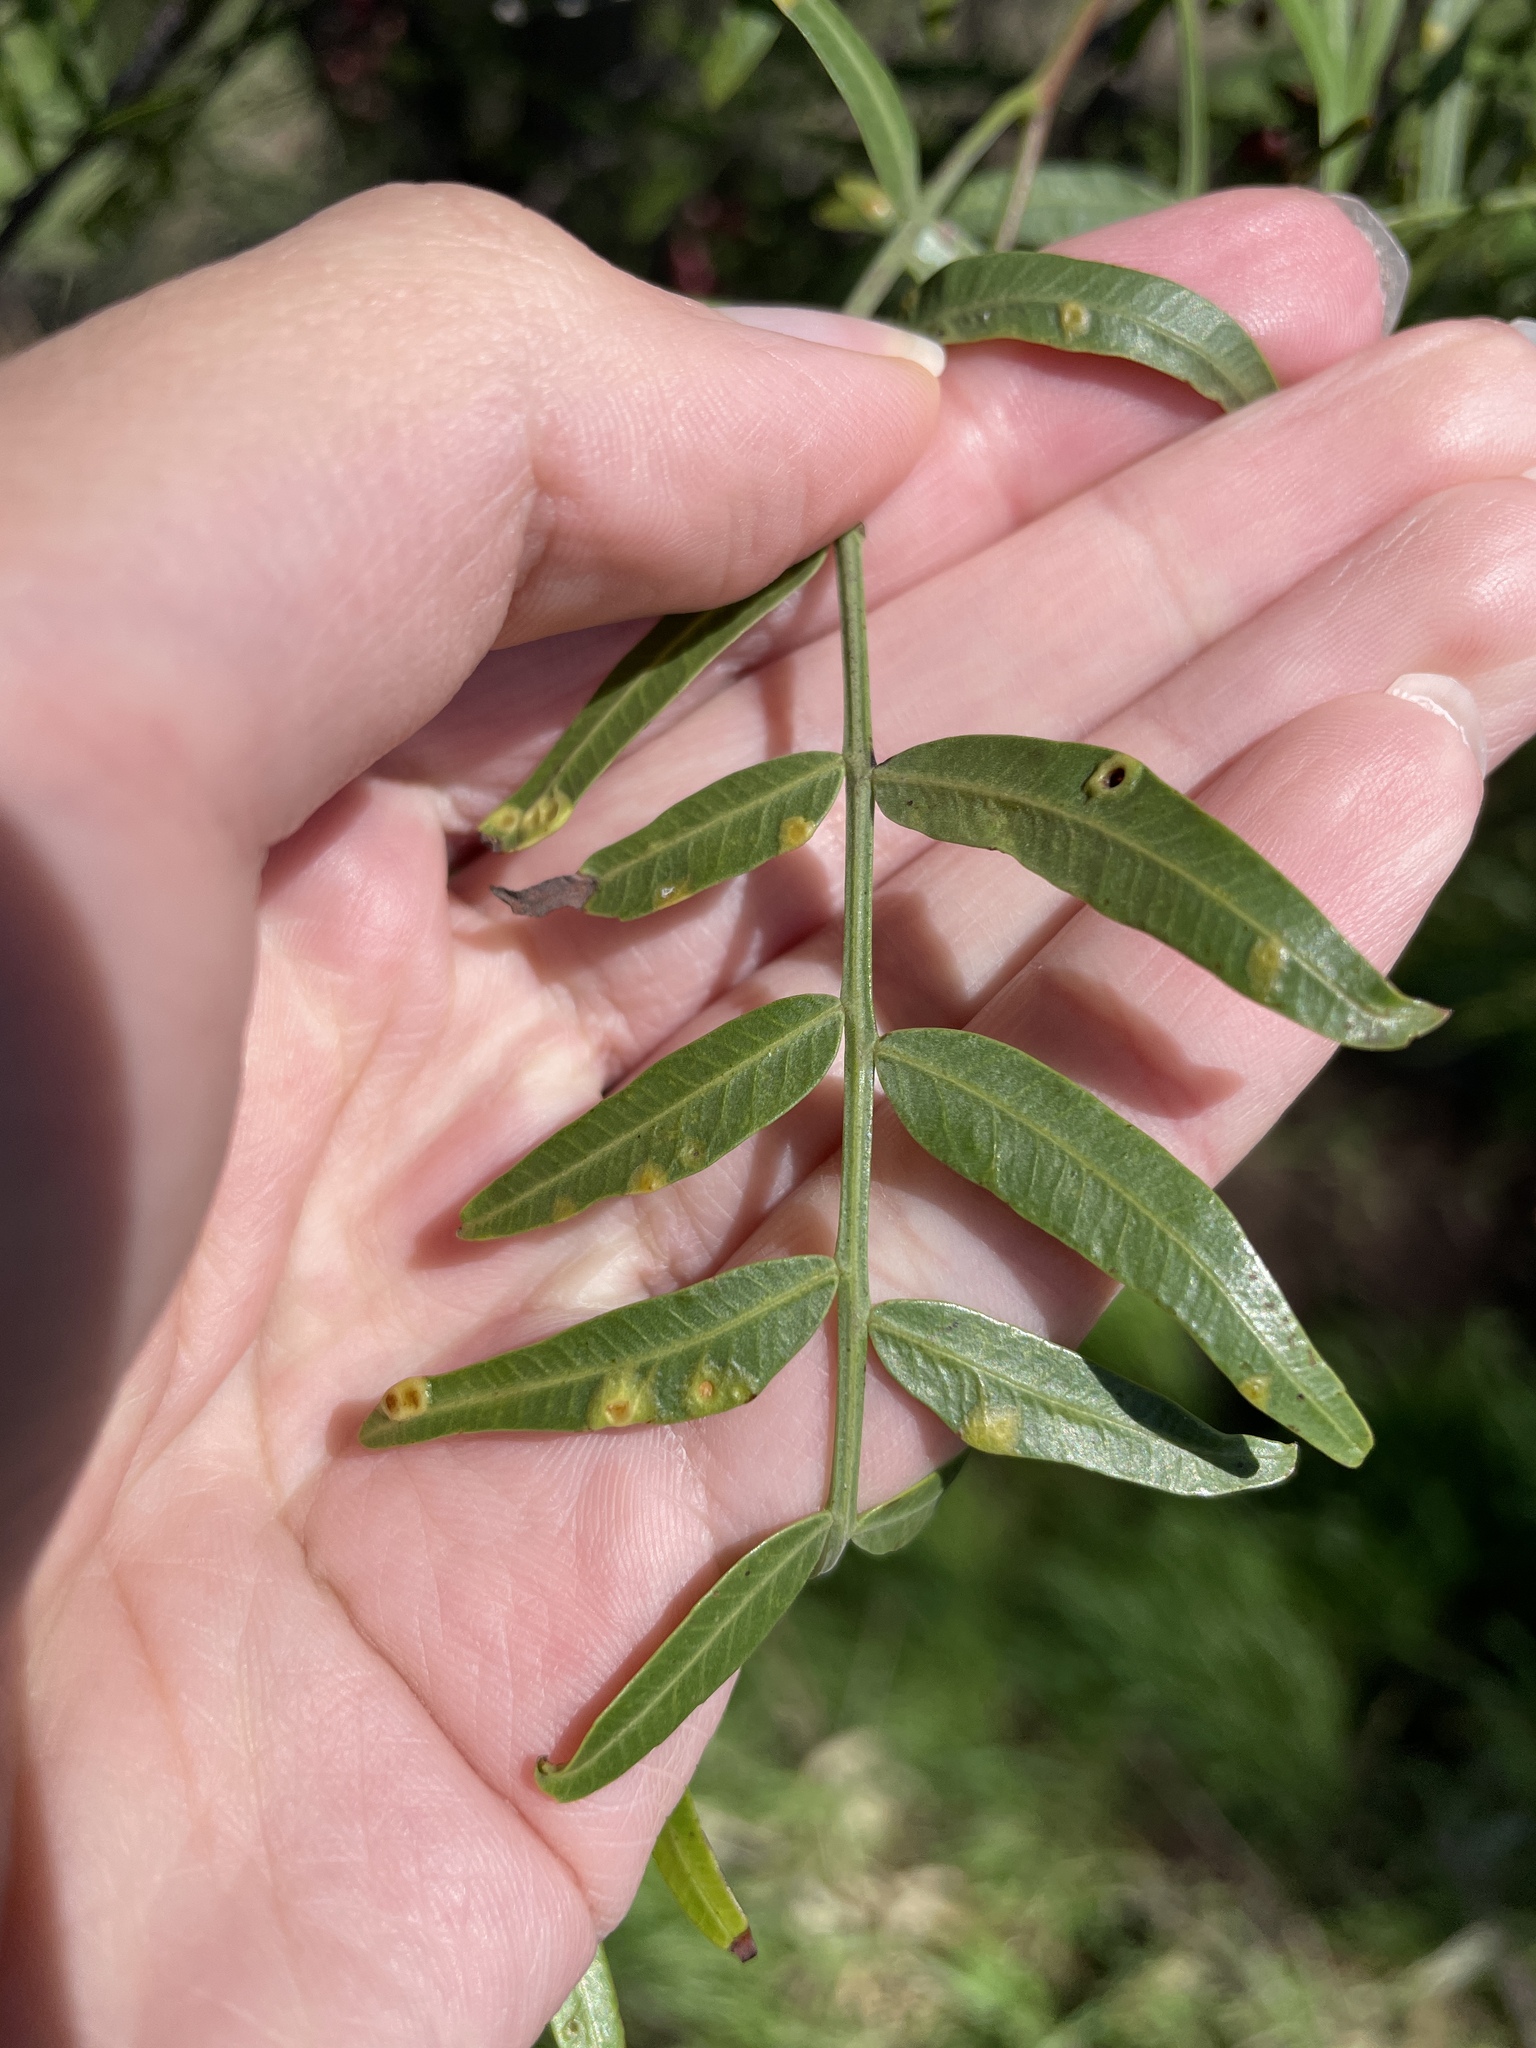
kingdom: Animalia
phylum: Arthropoda
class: Insecta
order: Hemiptera
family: Calophyidae
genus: Calophya
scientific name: Calophya schini
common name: Pepper tree psyllid
